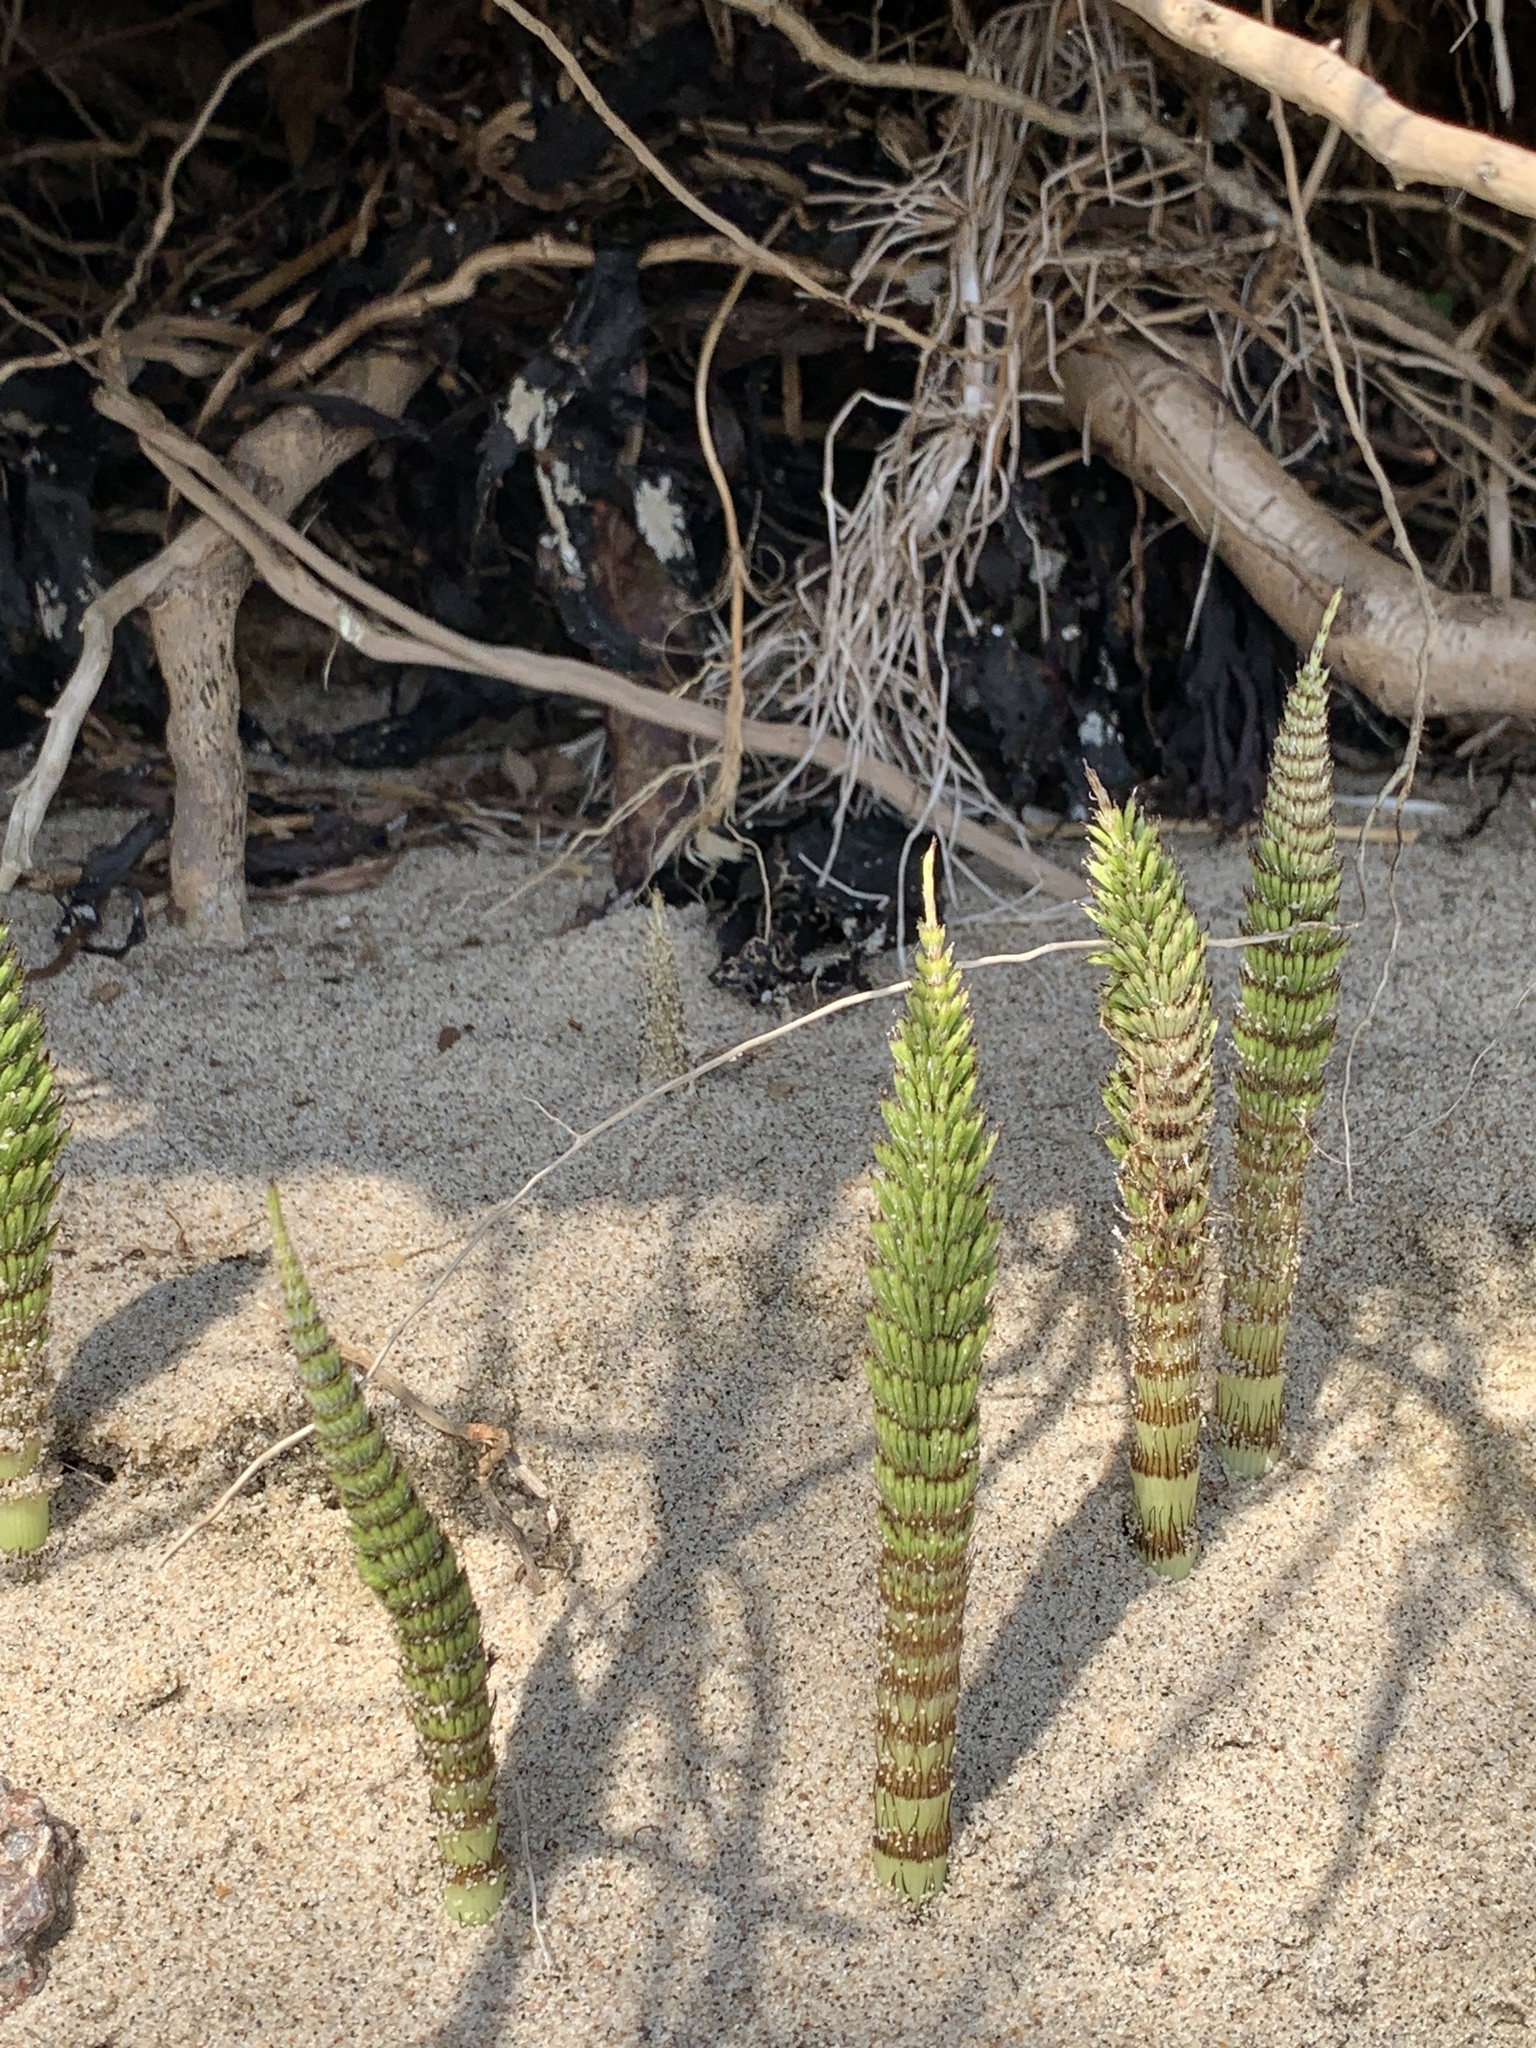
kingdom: Plantae
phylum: Tracheophyta
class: Polypodiopsida
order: Equisetales
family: Equisetaceae
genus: Equisetum
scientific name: Equisetum telmateia
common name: Great horsetail
